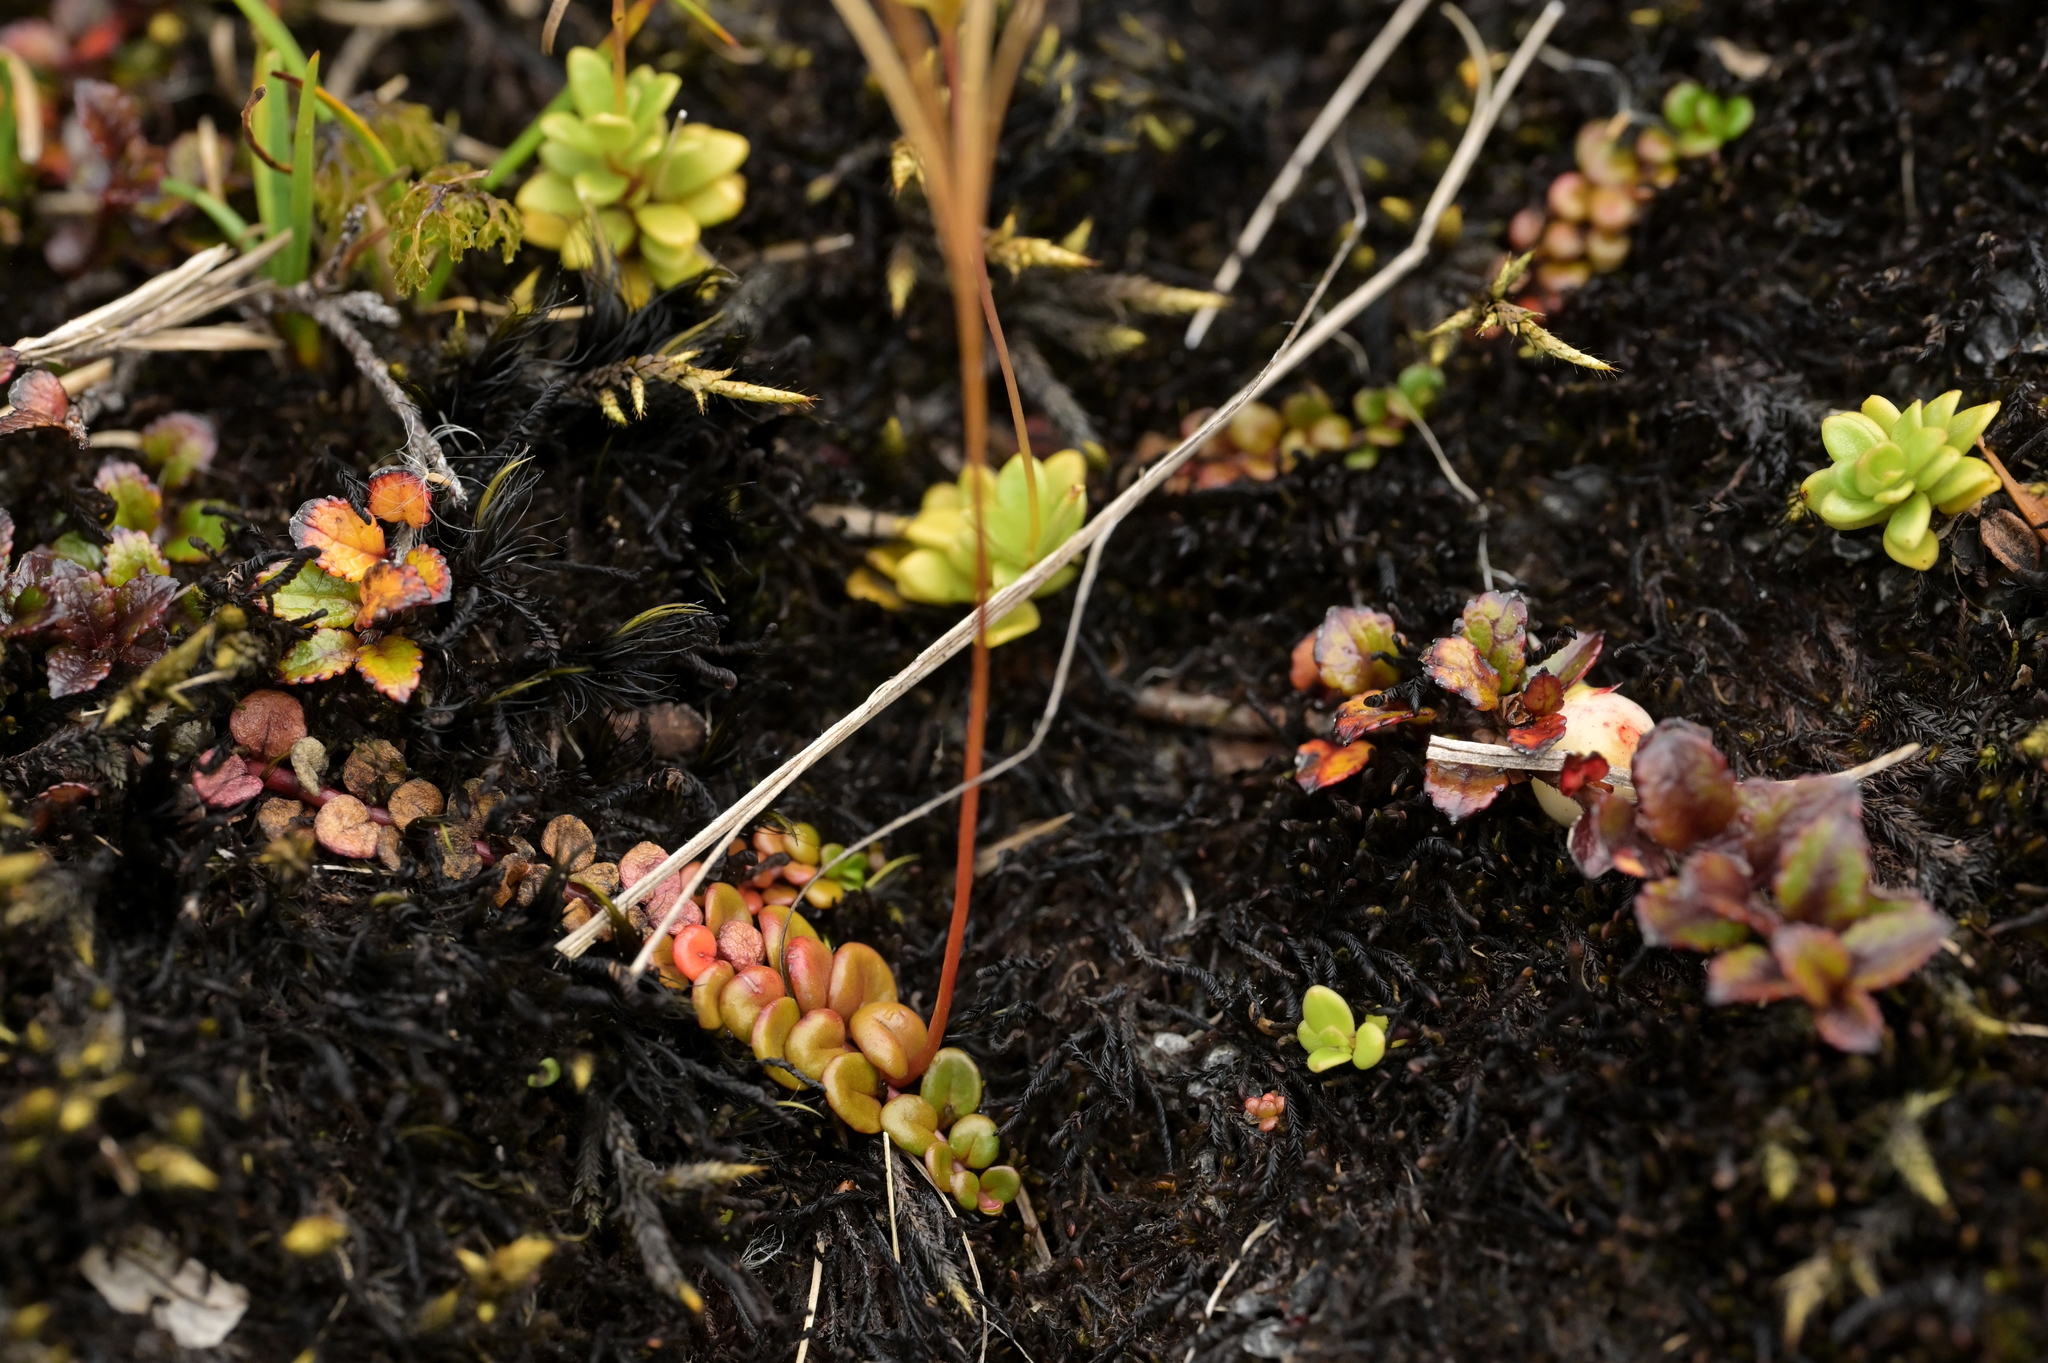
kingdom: Plantae
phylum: Tracheophyta
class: Magnoliopsida
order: Myrtales
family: Onagraceae
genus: Epilobium
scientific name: Epilobium pernitens
